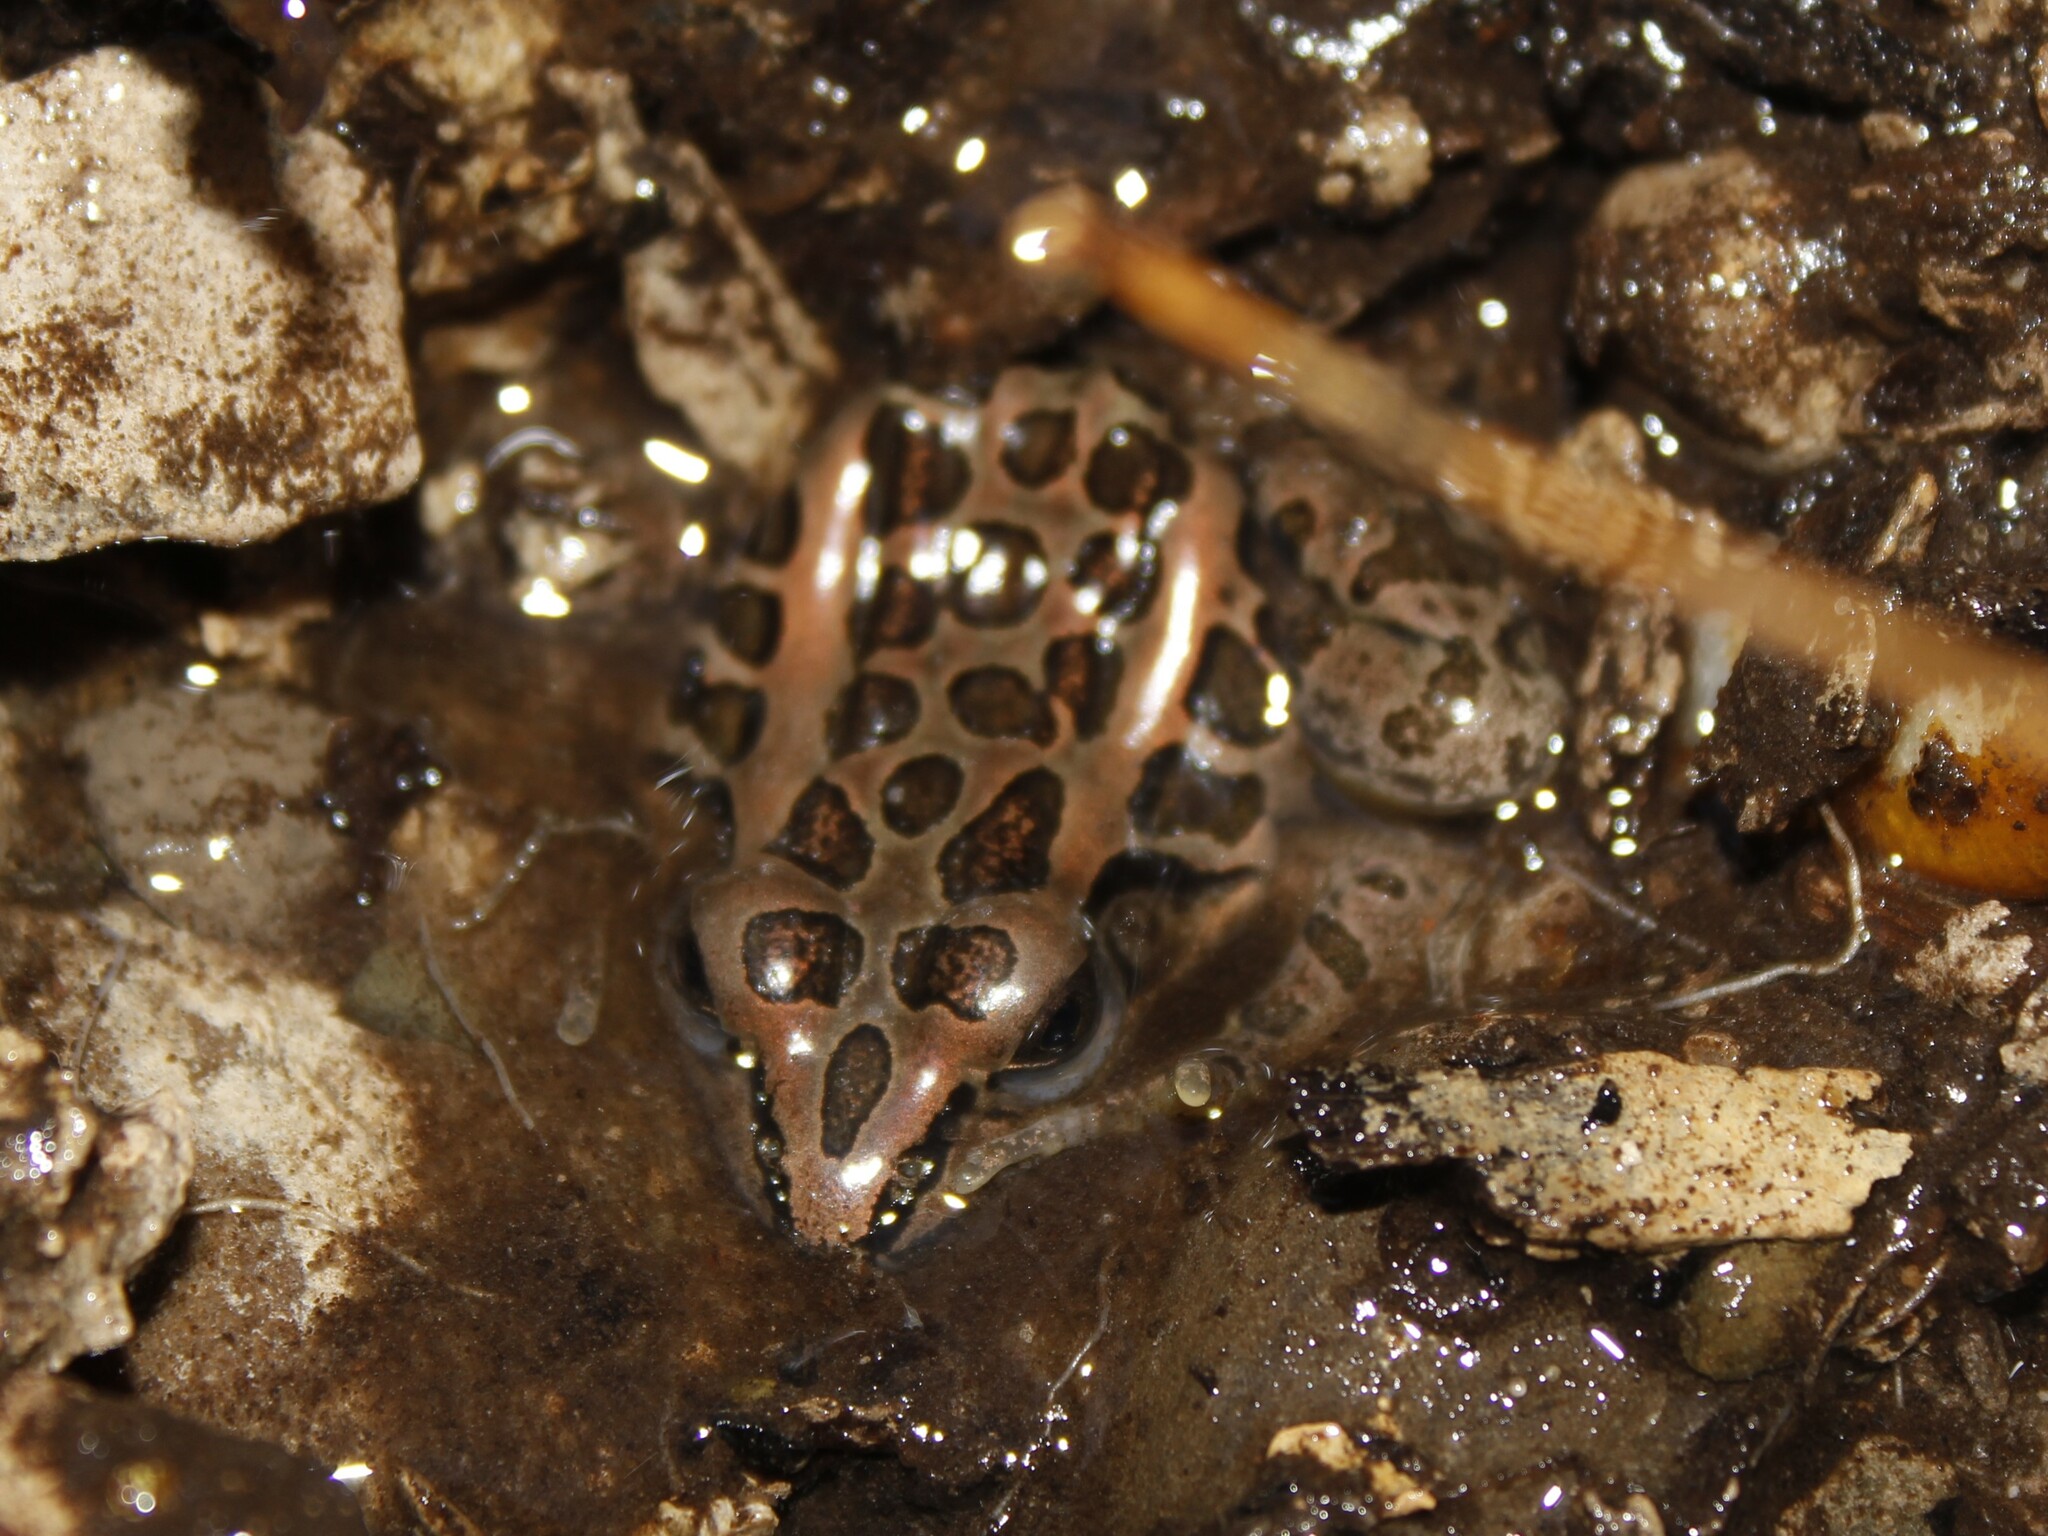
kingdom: Animalia
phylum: Chordata
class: Amphibia
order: Anura
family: Ranidae
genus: Lithobates
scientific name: Lithobates palustris
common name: Pickerel frog
